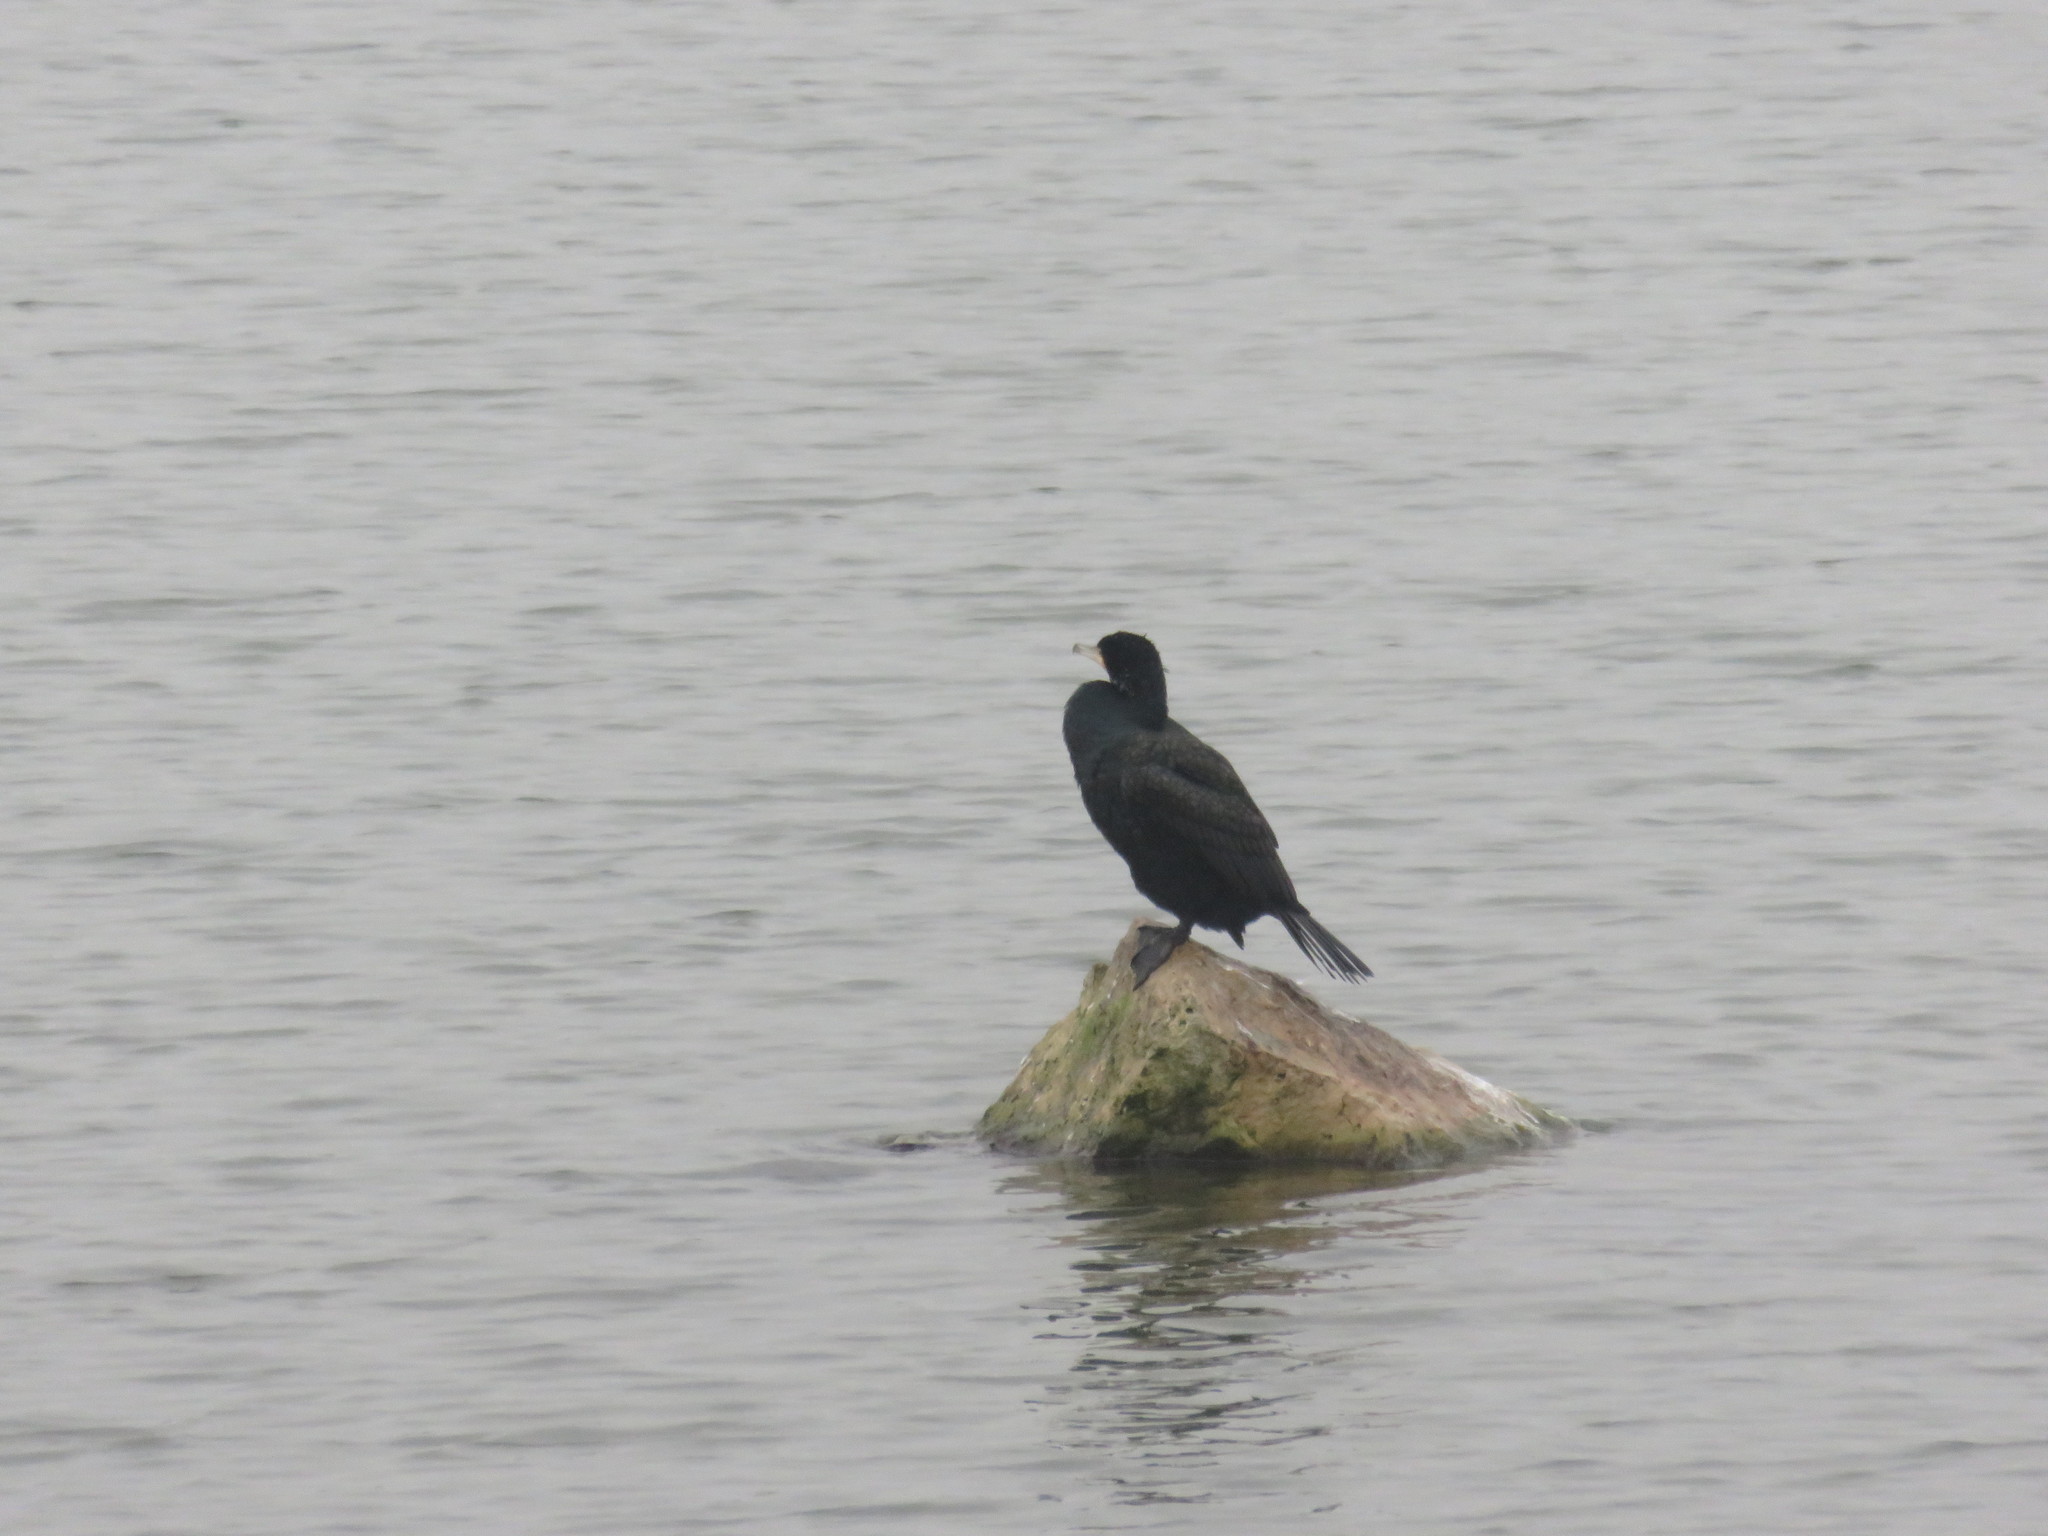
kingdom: Animalia
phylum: Chordata
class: Aves
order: Suliformes
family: Phalacrocoracidae
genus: Phalacrocorax
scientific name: Phalacrocorax carbo
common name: Great cormorant
